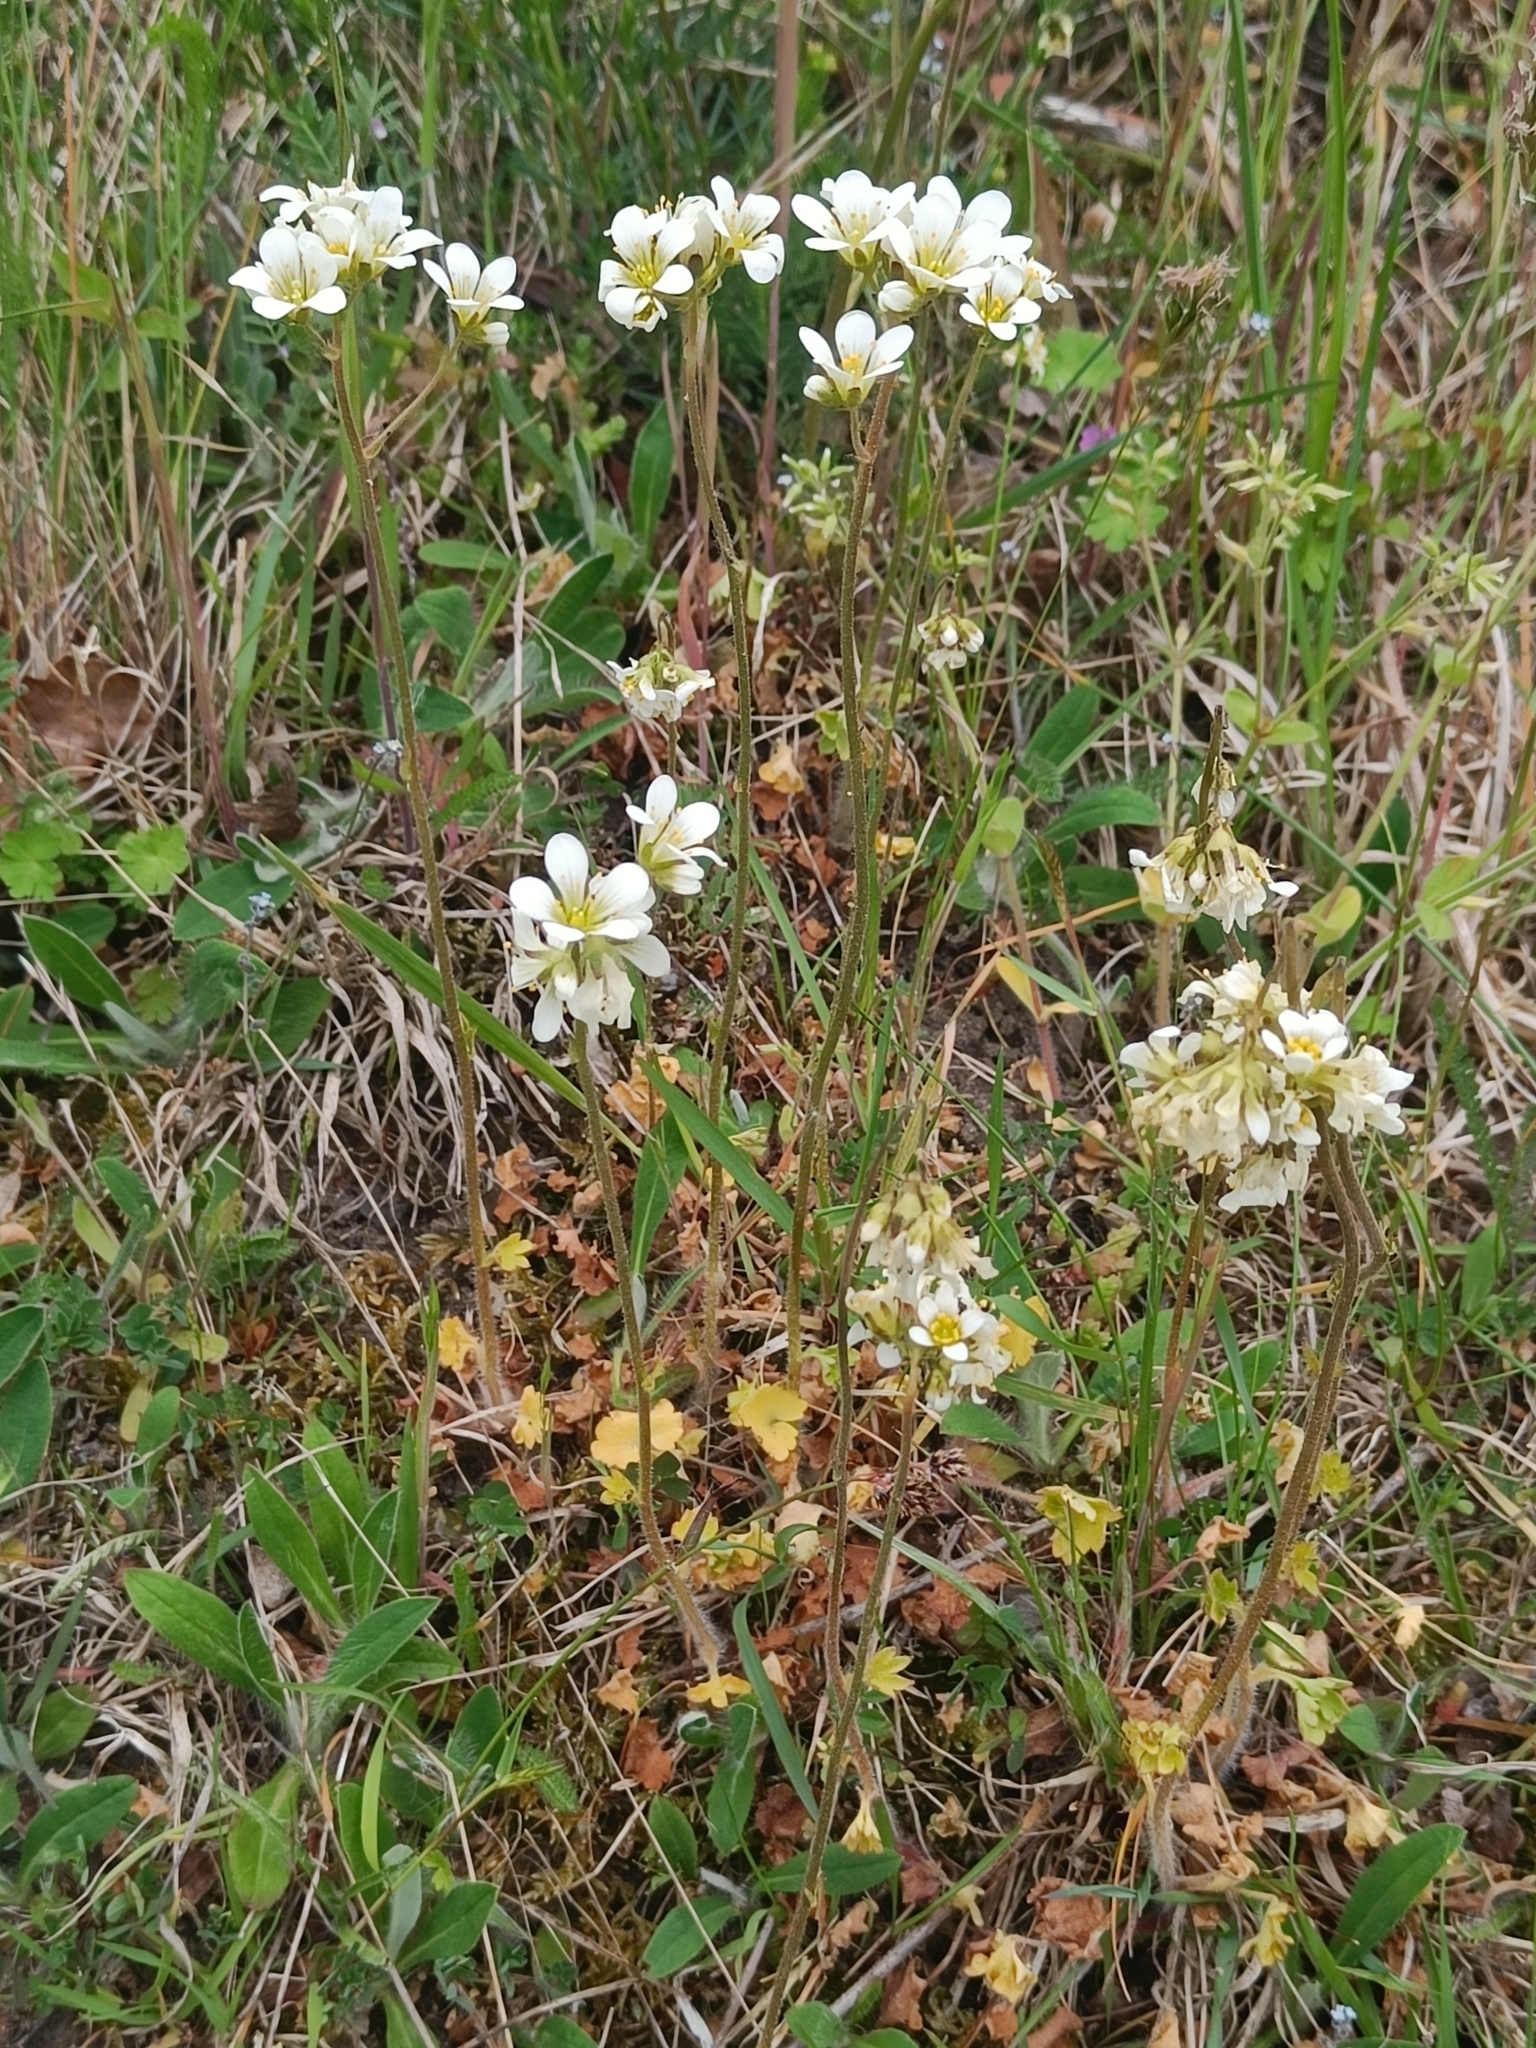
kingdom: Plantae
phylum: Tracheophyta
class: Magnoliopsida
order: Saxifragales
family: Saxifragaceae
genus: Saxifraga
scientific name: Saxifraga granulata
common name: Meadow saxifrage
